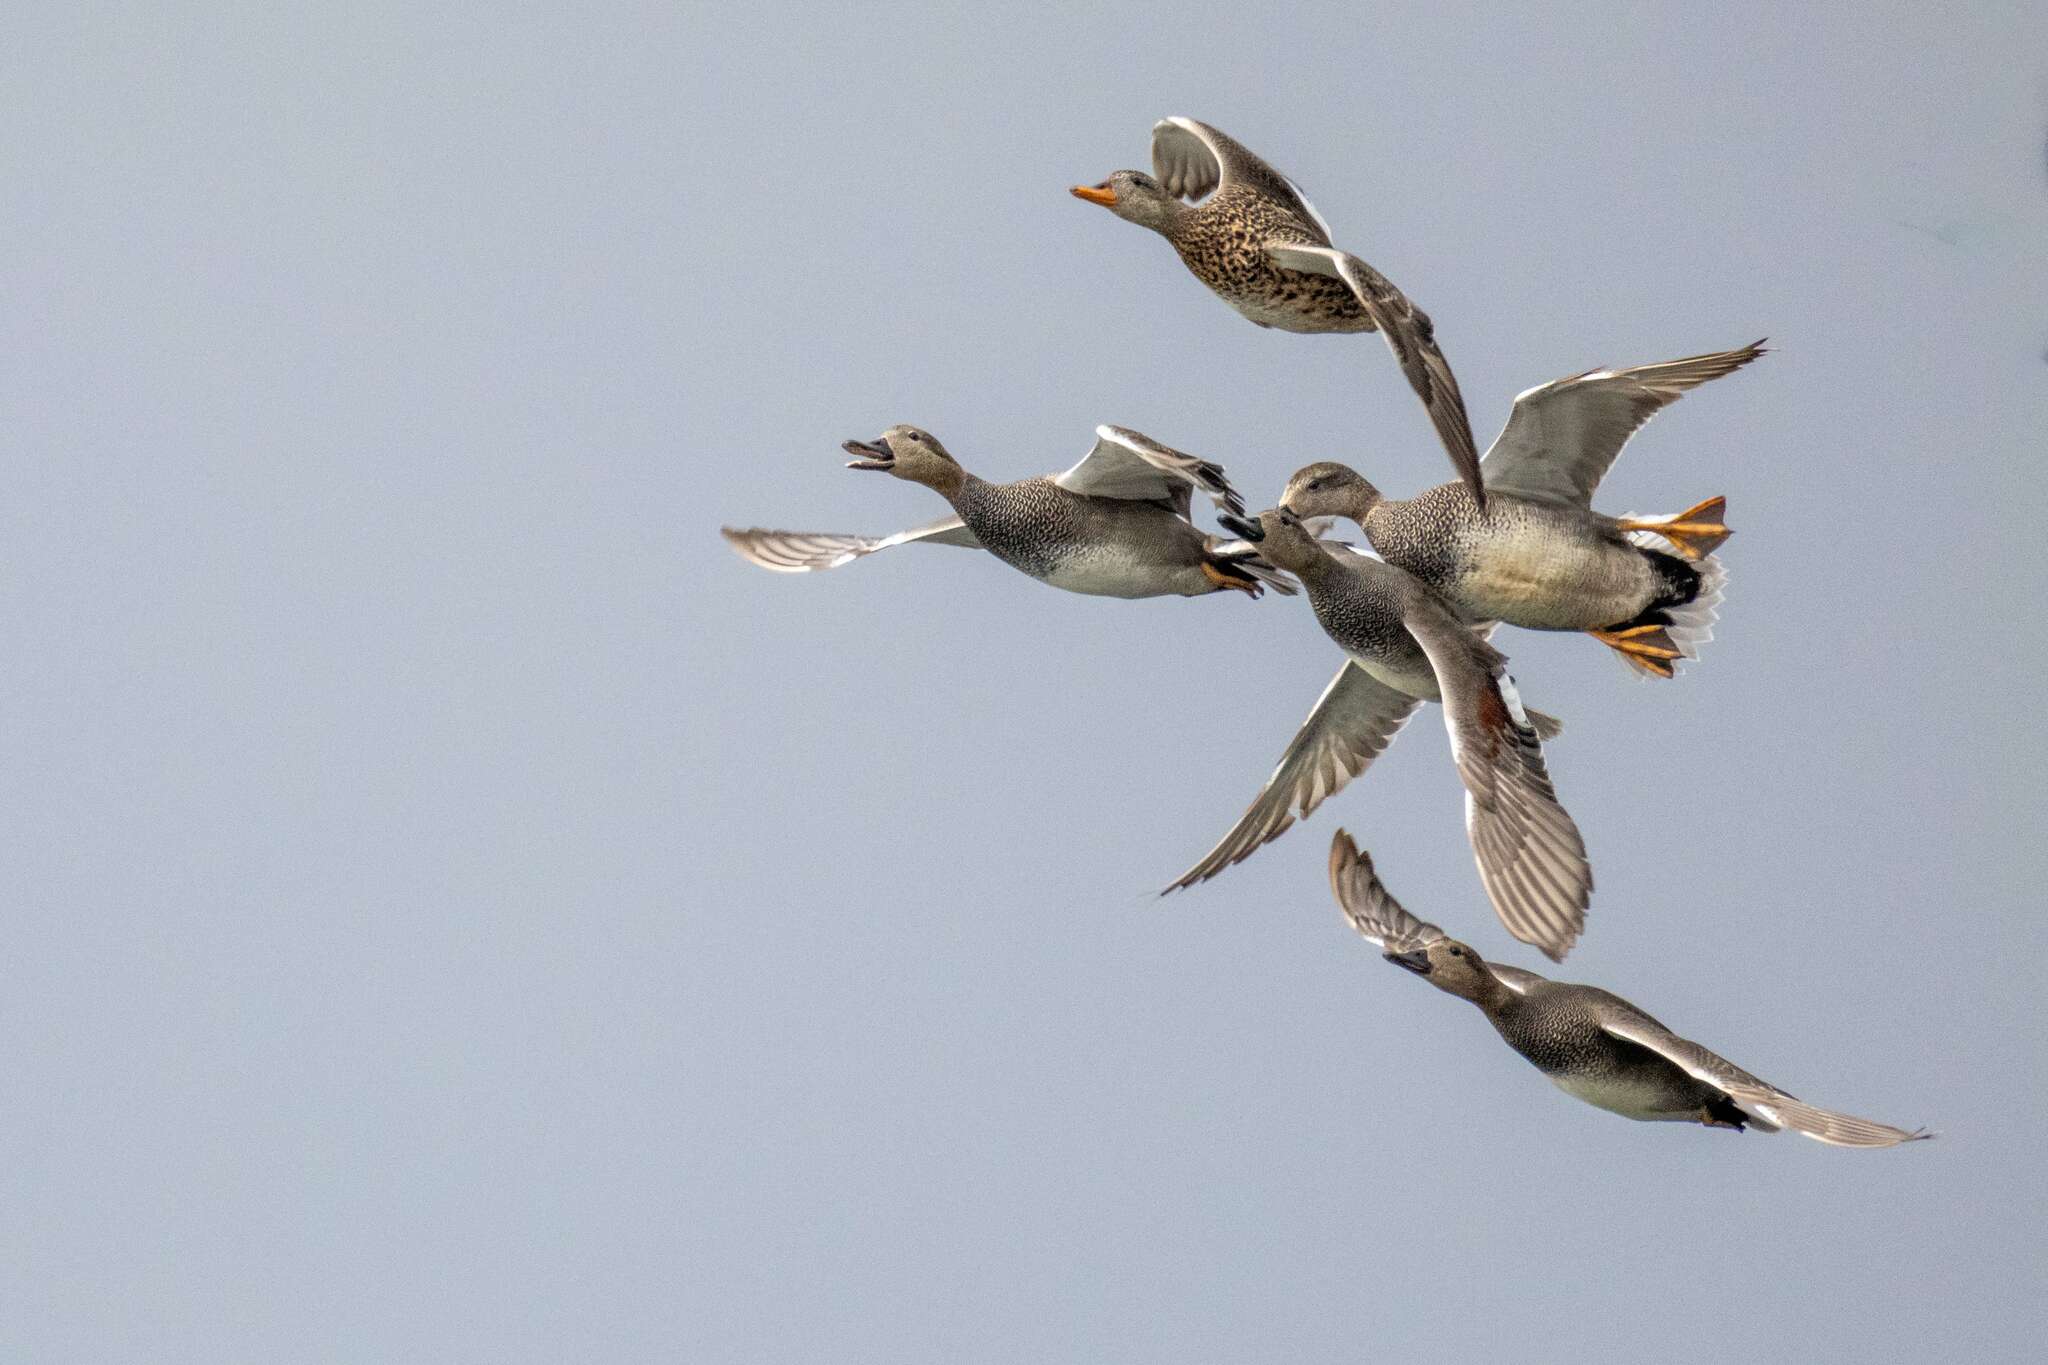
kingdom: Animalia
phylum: Chordata
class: Aves
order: Anseriformes
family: Anatidae
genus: Mareca
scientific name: Mareca strepera
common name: Gadwall
